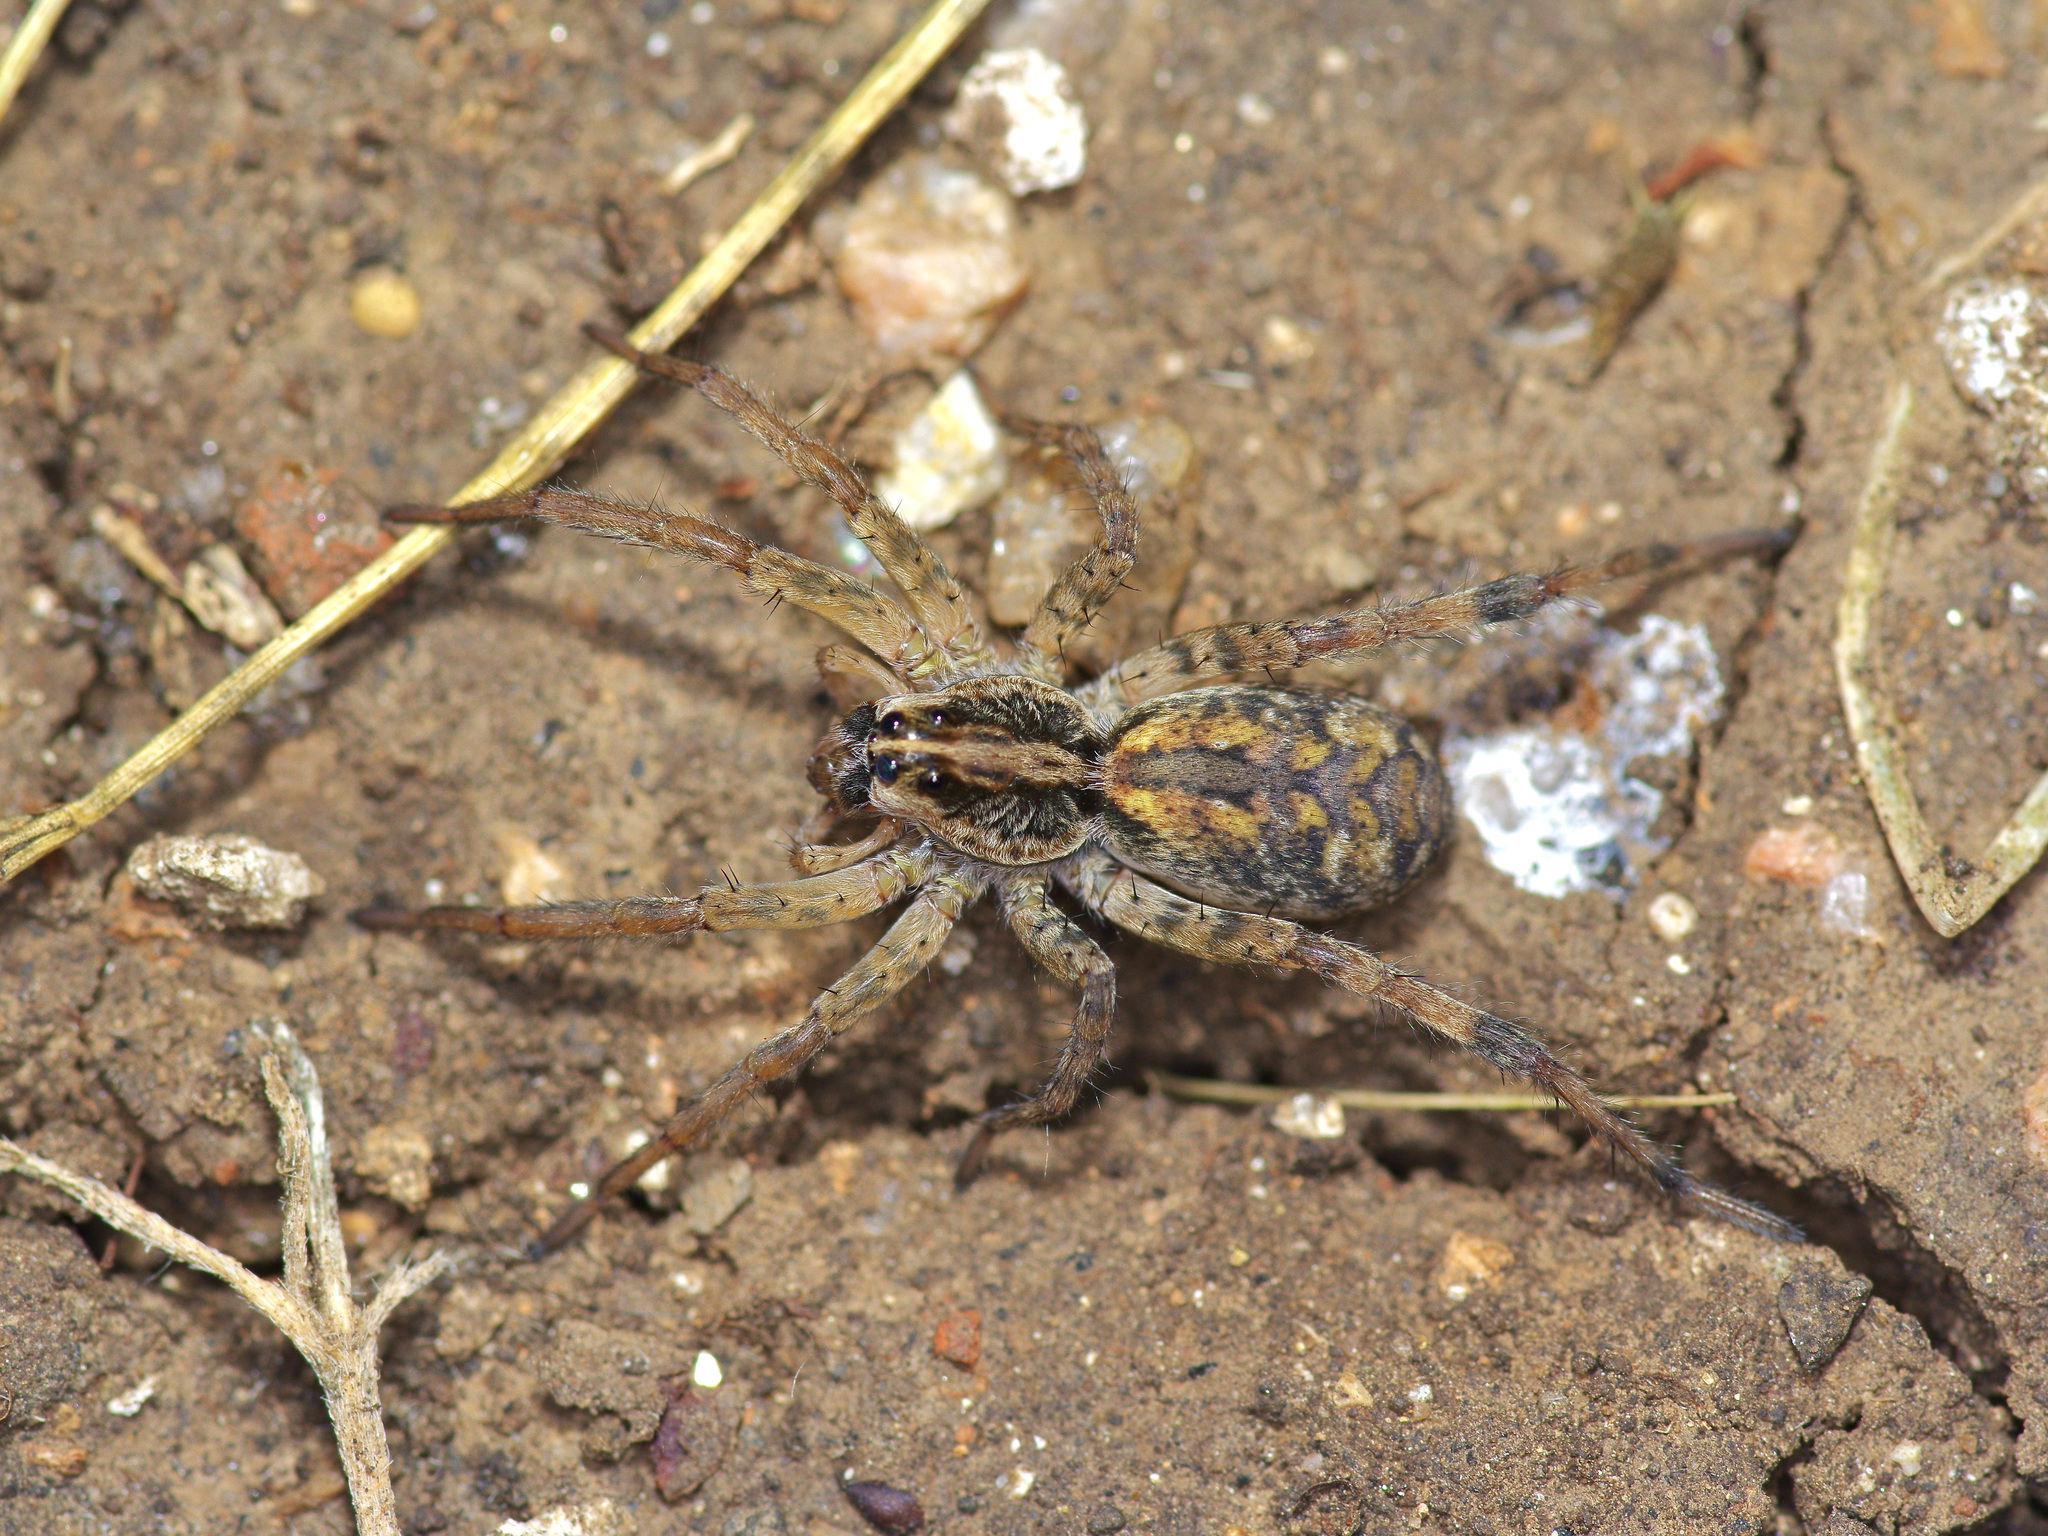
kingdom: Animalia
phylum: Arthropoda
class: Arachnida
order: Araneae
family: Lycosidae
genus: Hogna
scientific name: Hogna antelucana
